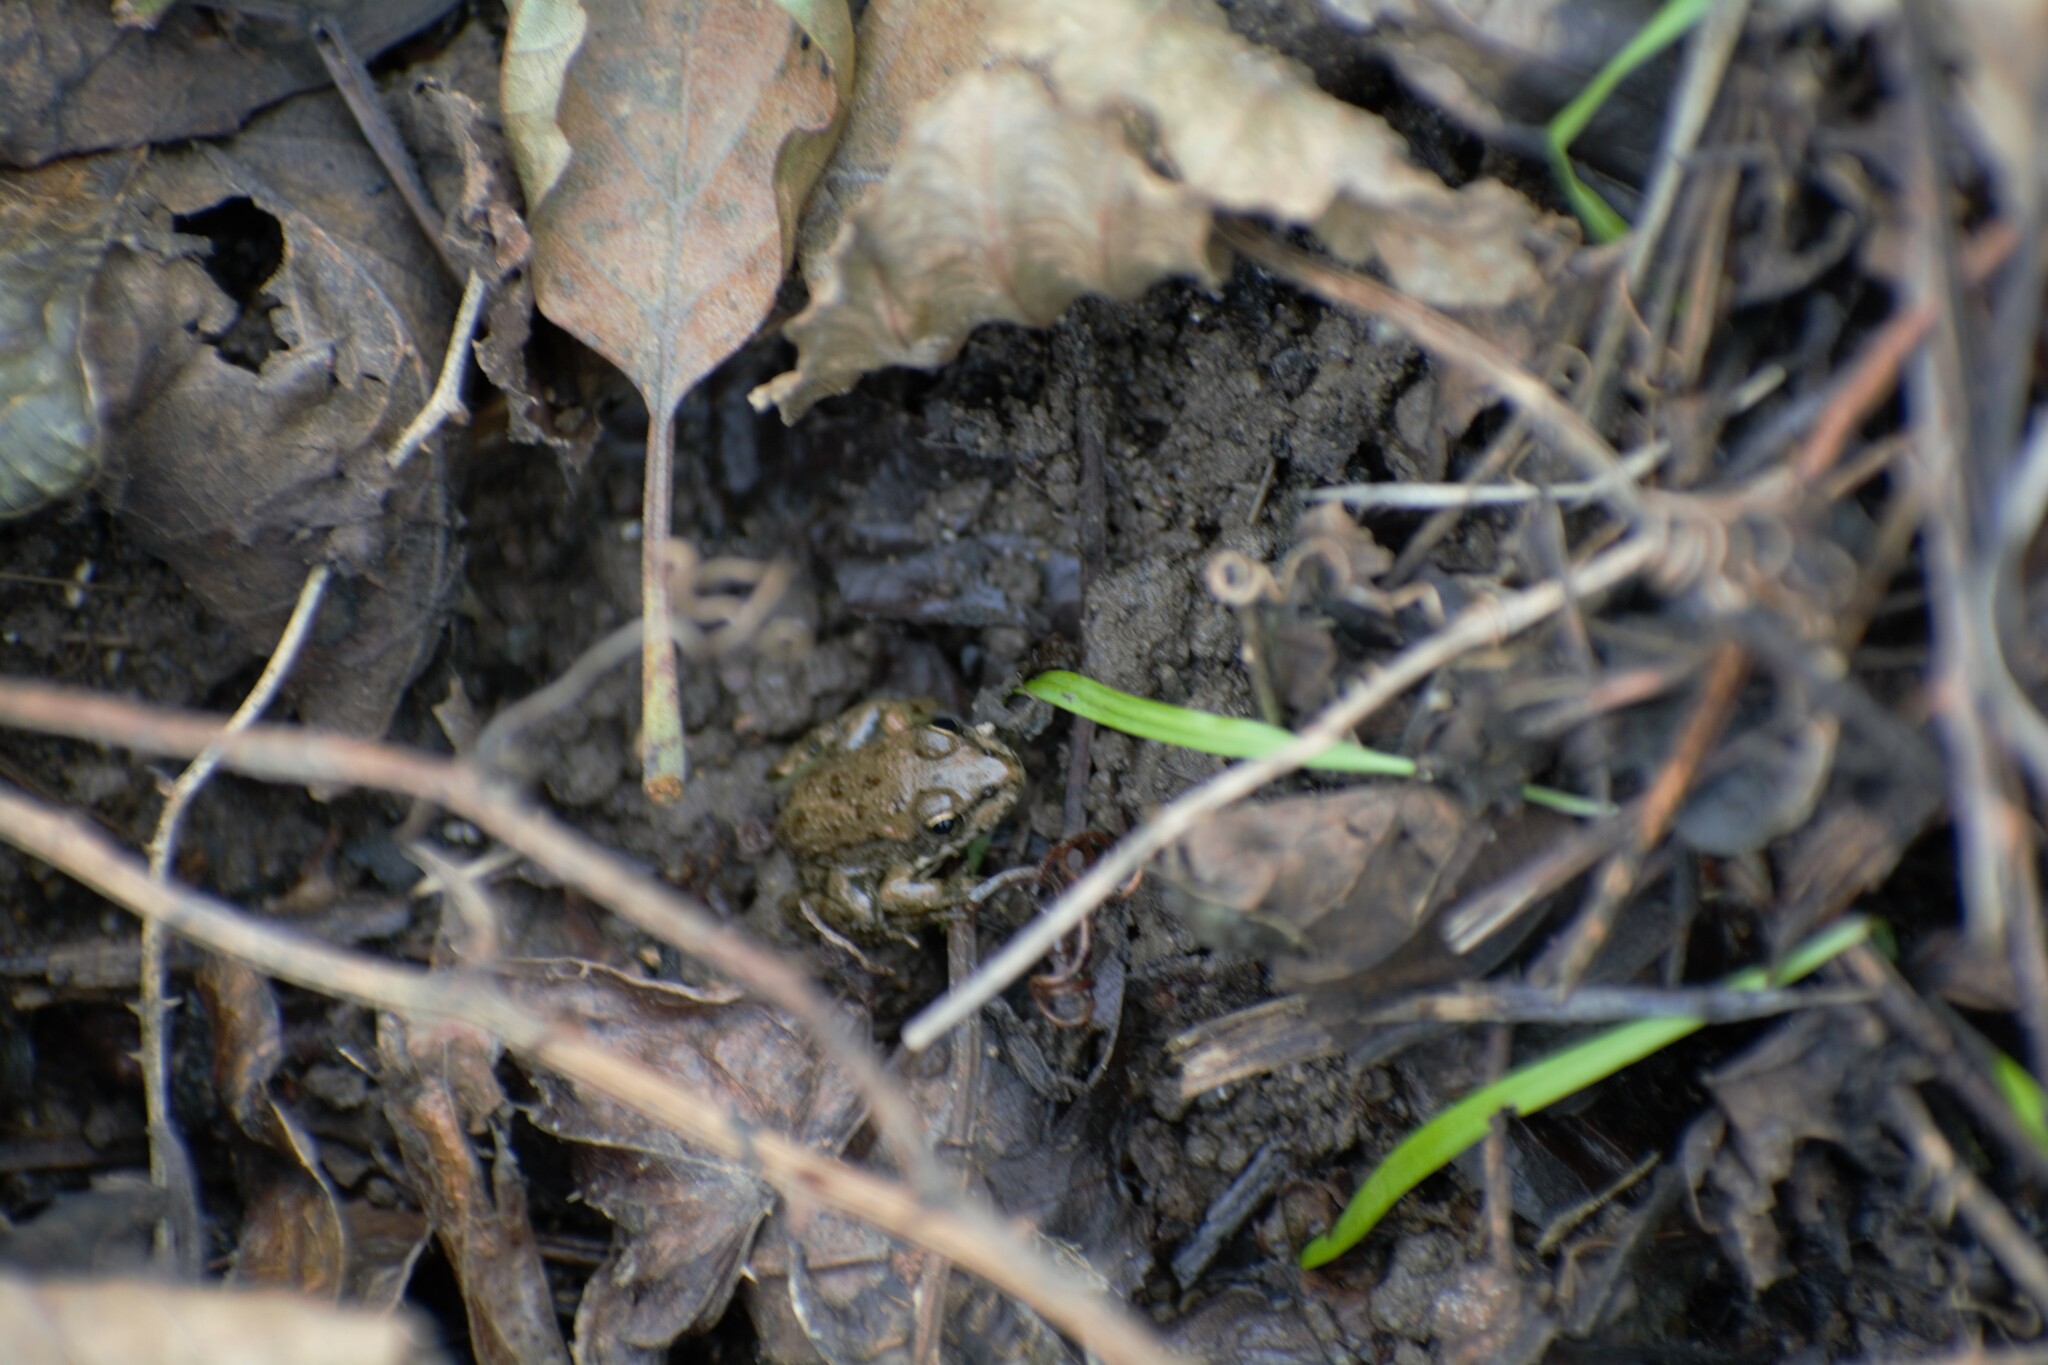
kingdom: Animalia
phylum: Chordata
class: Amphibia
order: Anura
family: Ranidae
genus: Pelophylax
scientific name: Pelophylax perezi
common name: Perez's frog
